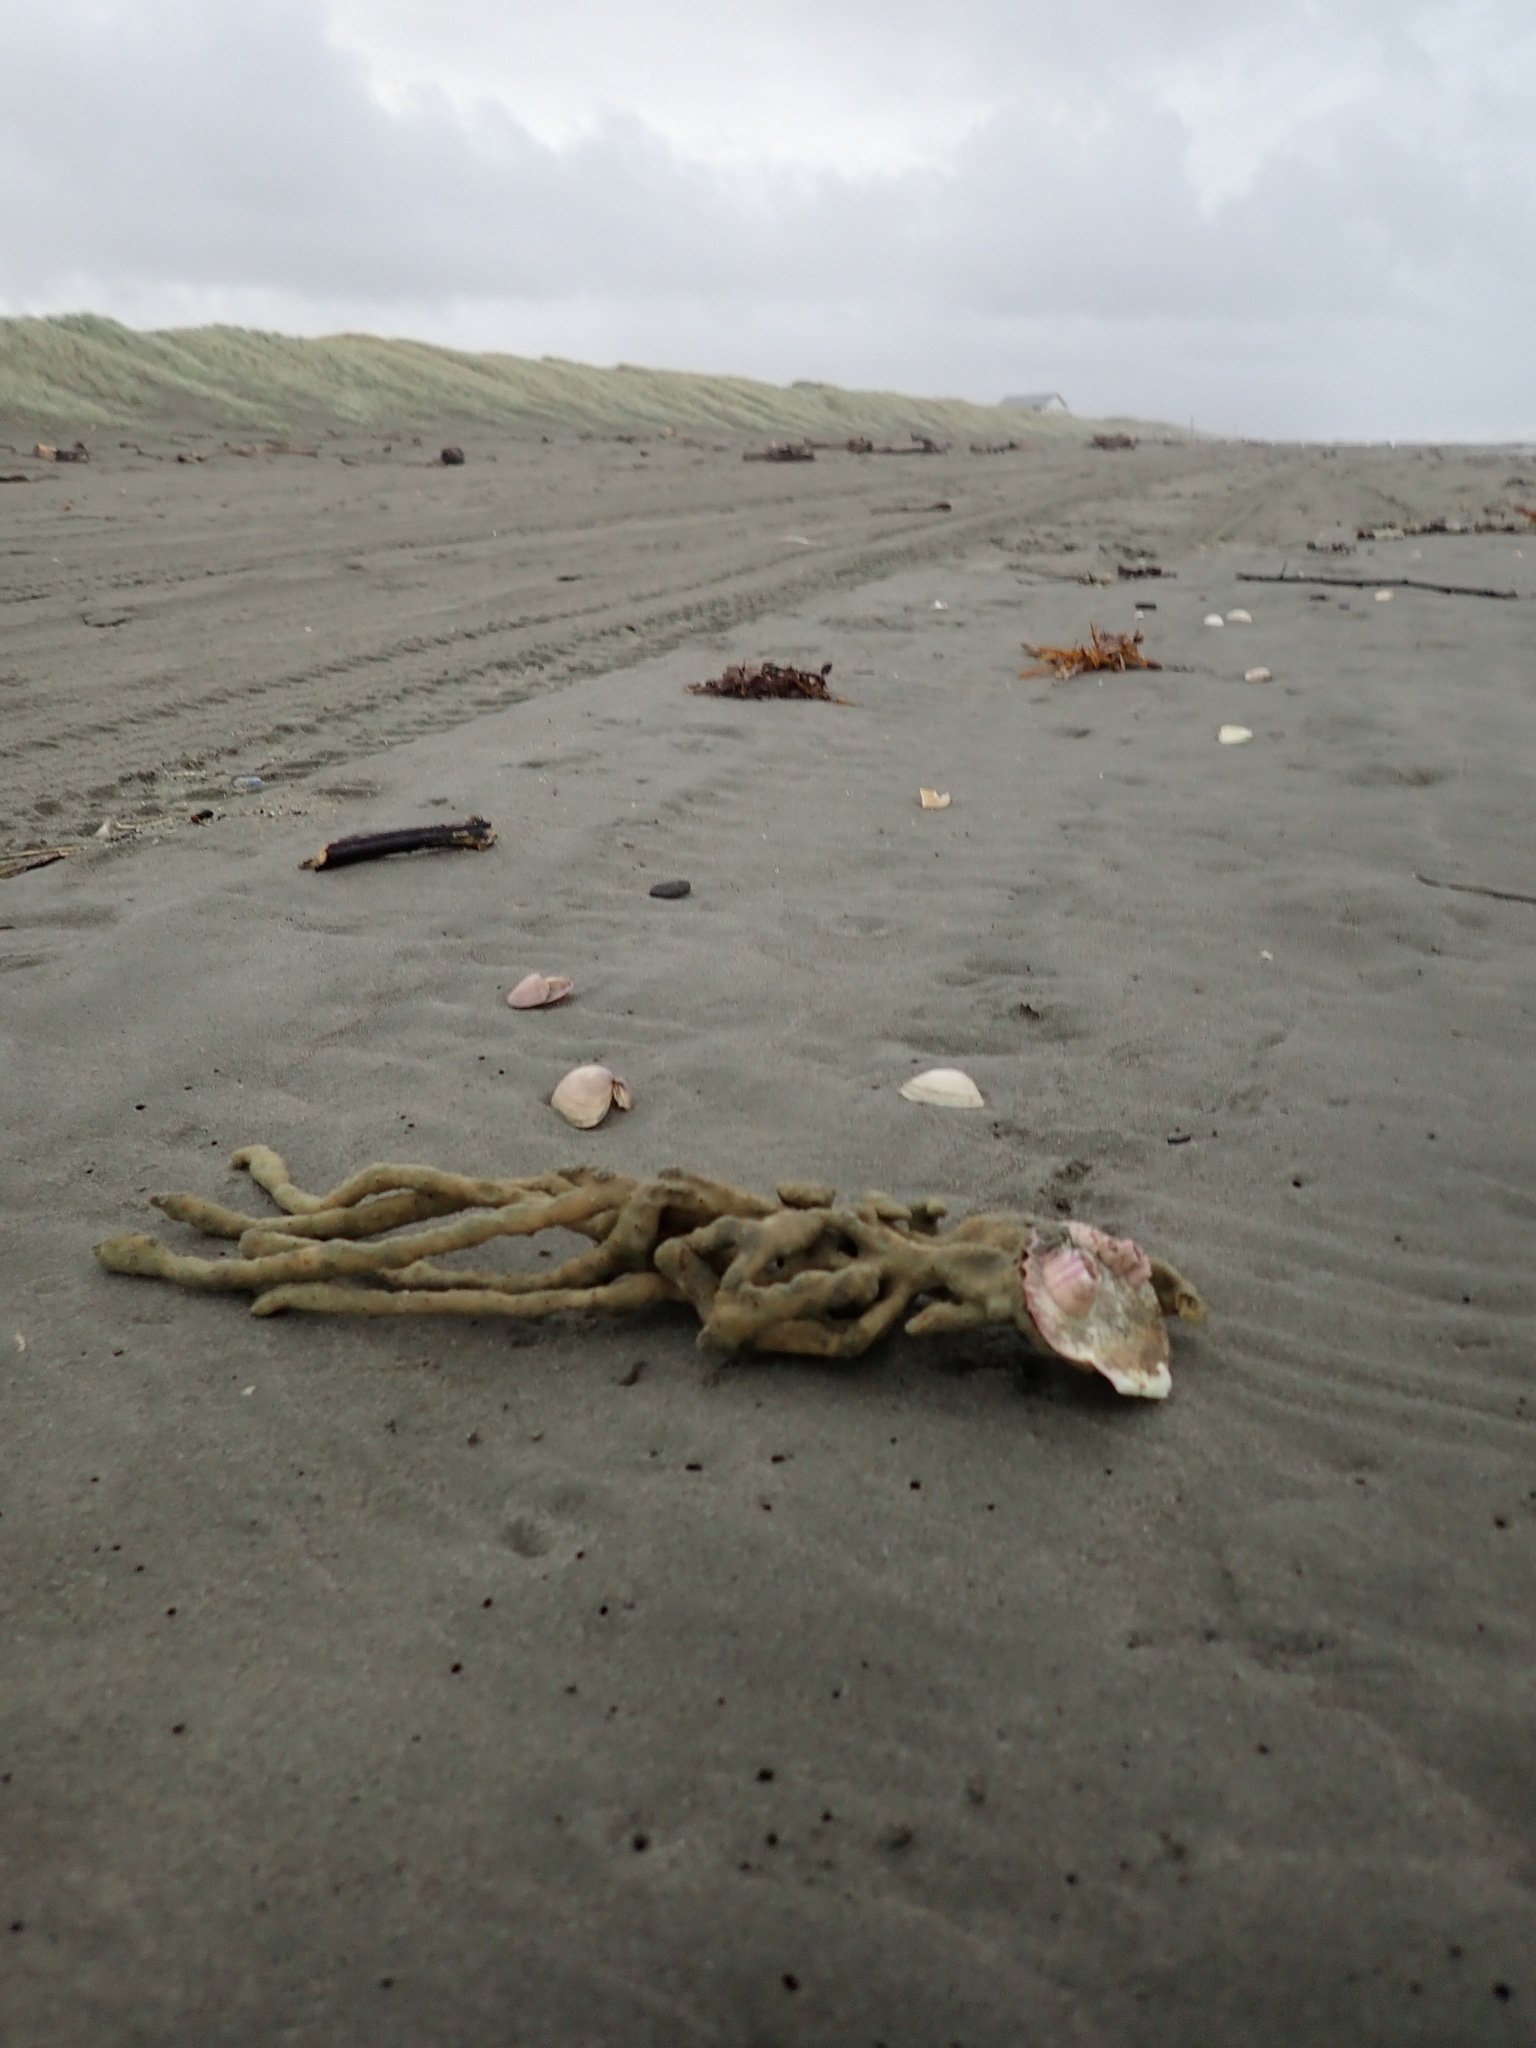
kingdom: Animalia
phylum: Arthropoda
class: Maxillopoda
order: Sessilia
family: Balanidae
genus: Notomegabalanus
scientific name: Notomegabalanus decorus
